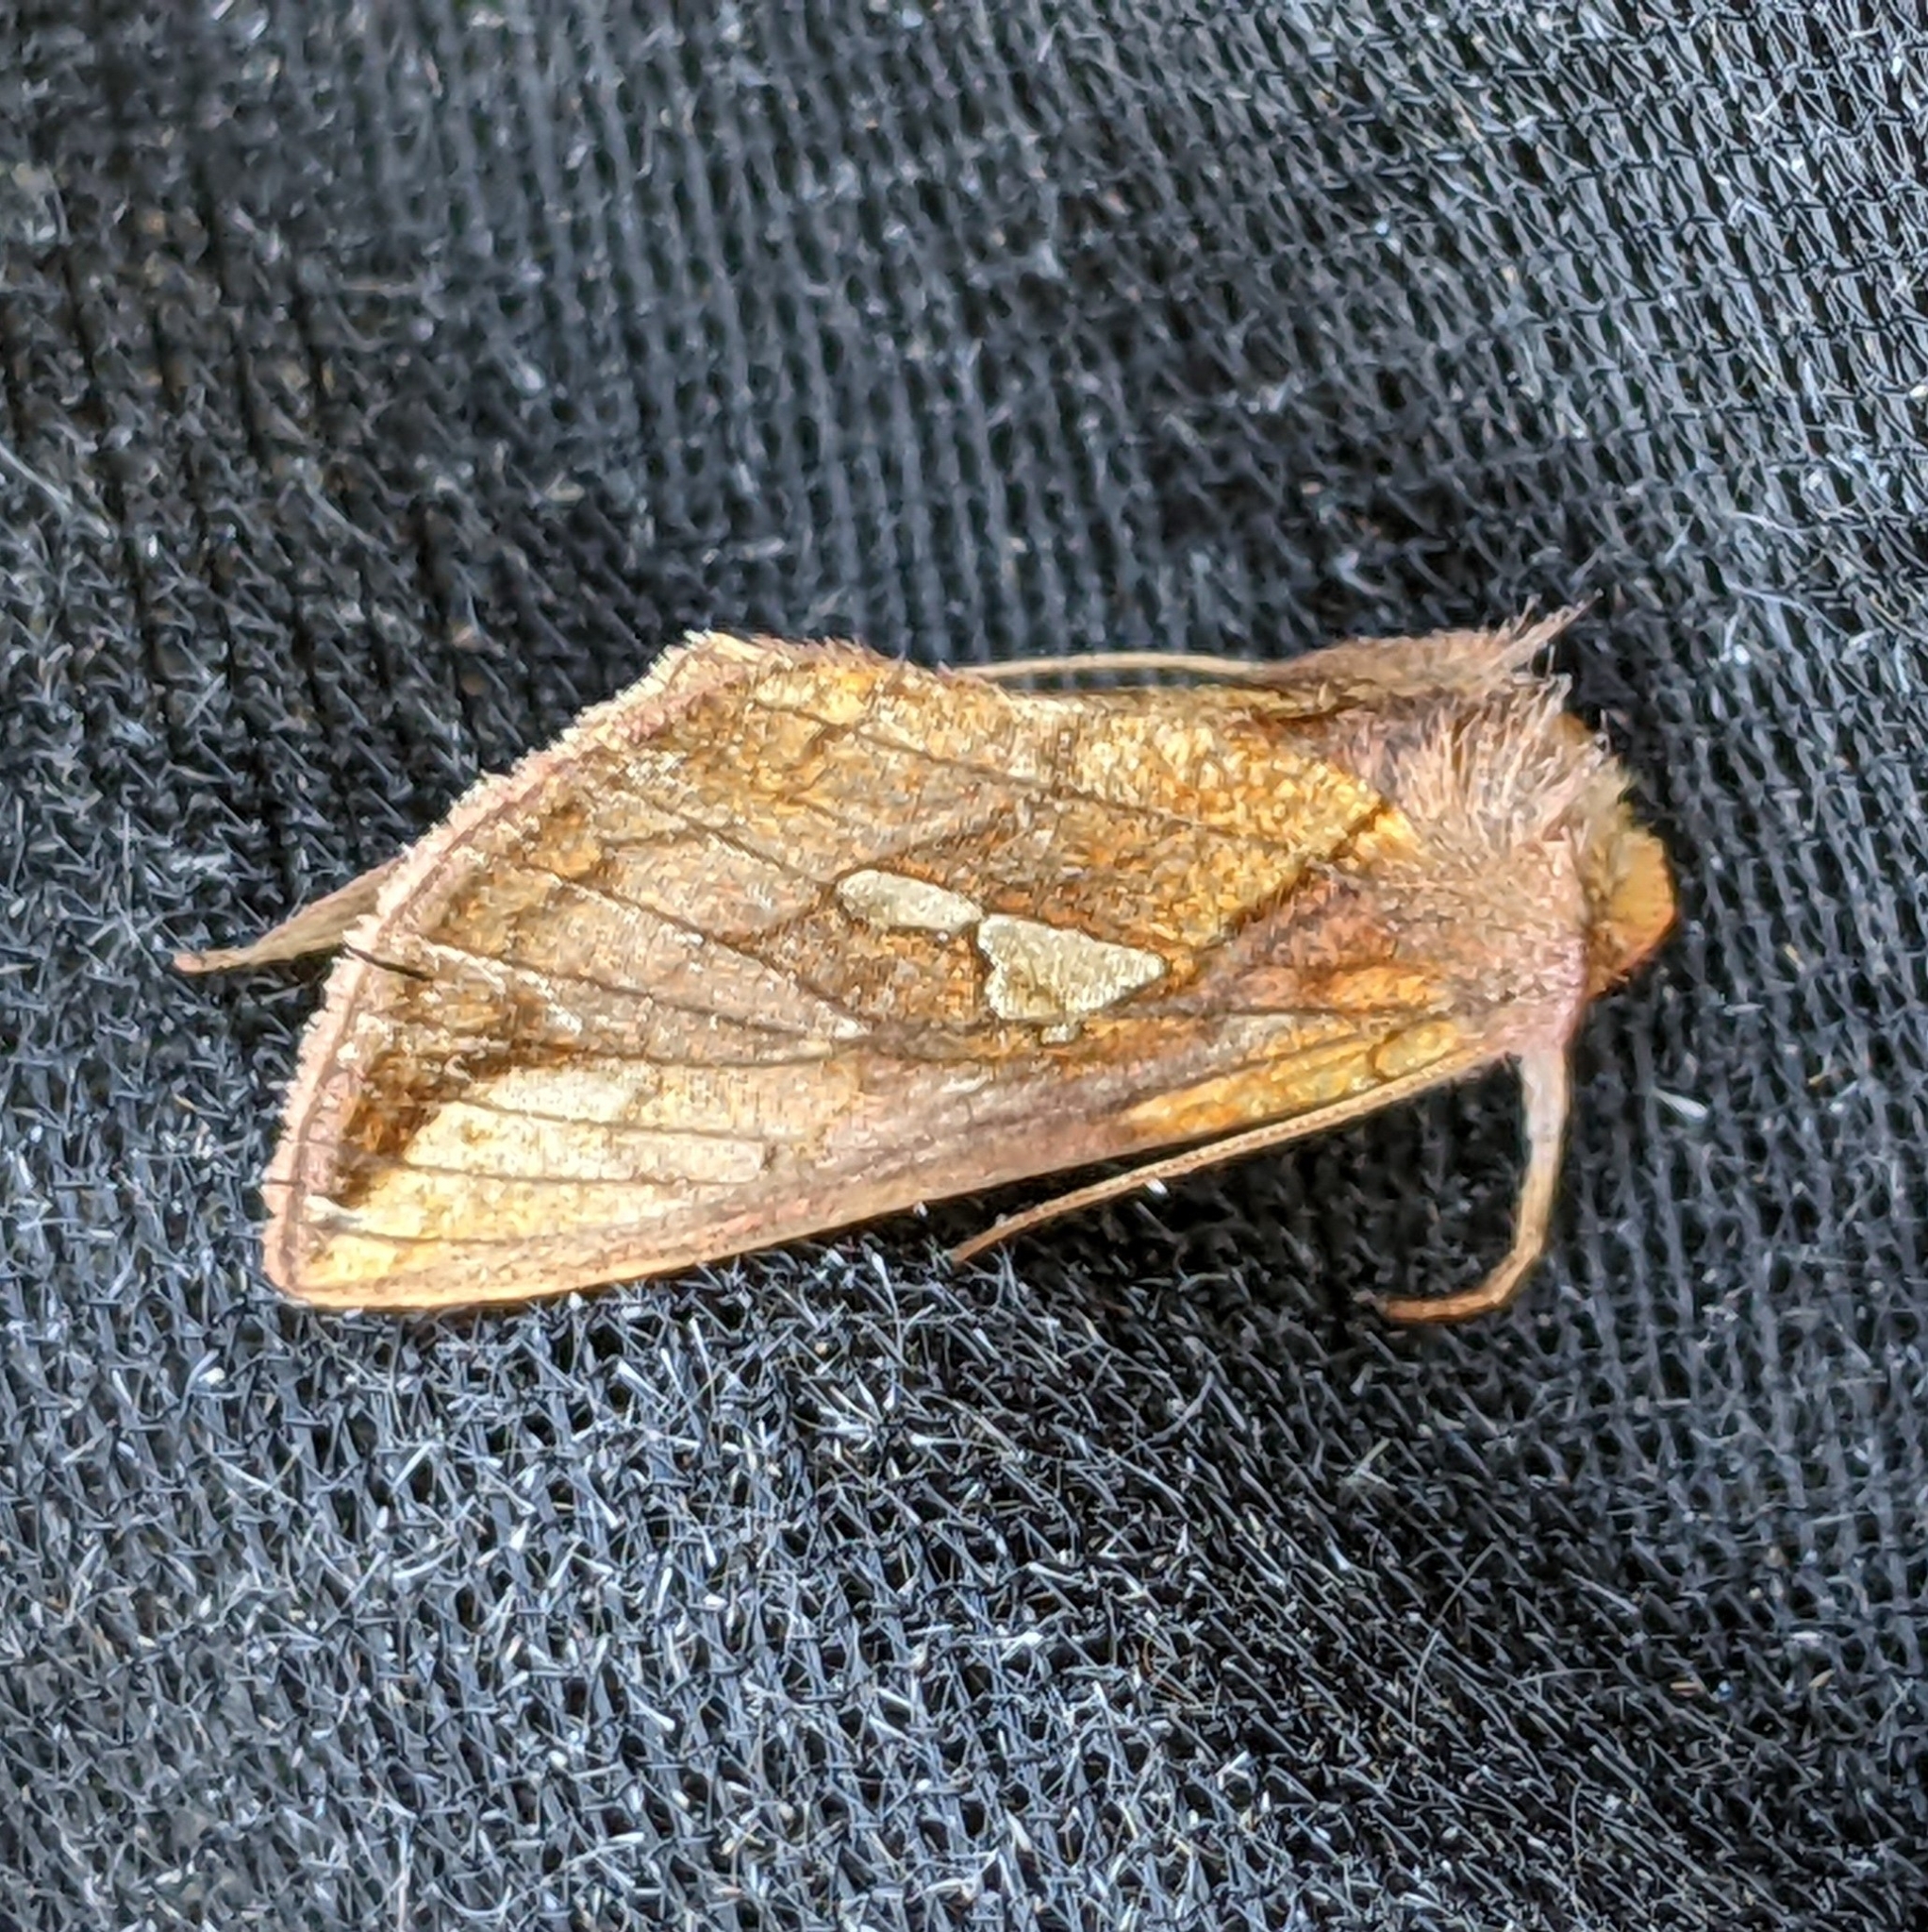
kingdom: Animalia
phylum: Arthropoda
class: Insecta
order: Lepidoptera
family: Noctuidae
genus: Plusia
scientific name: Plusia putnami
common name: Lempke's gold spot
